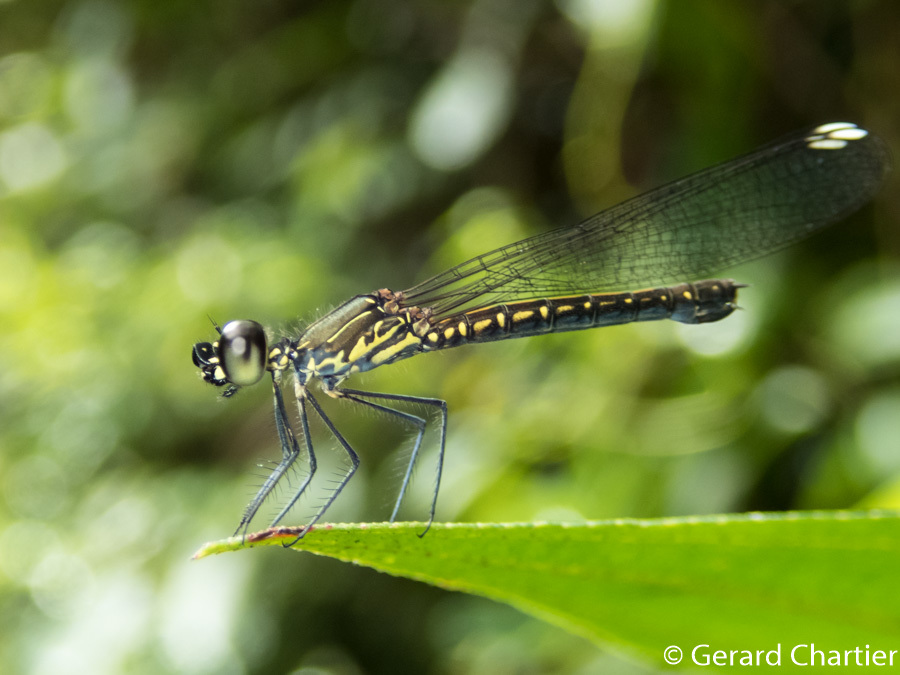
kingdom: Animalia
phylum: Arthropoda
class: Insecta
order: Odonata
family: Chlorocyphidae
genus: Libellago
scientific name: Libellago hyalina
